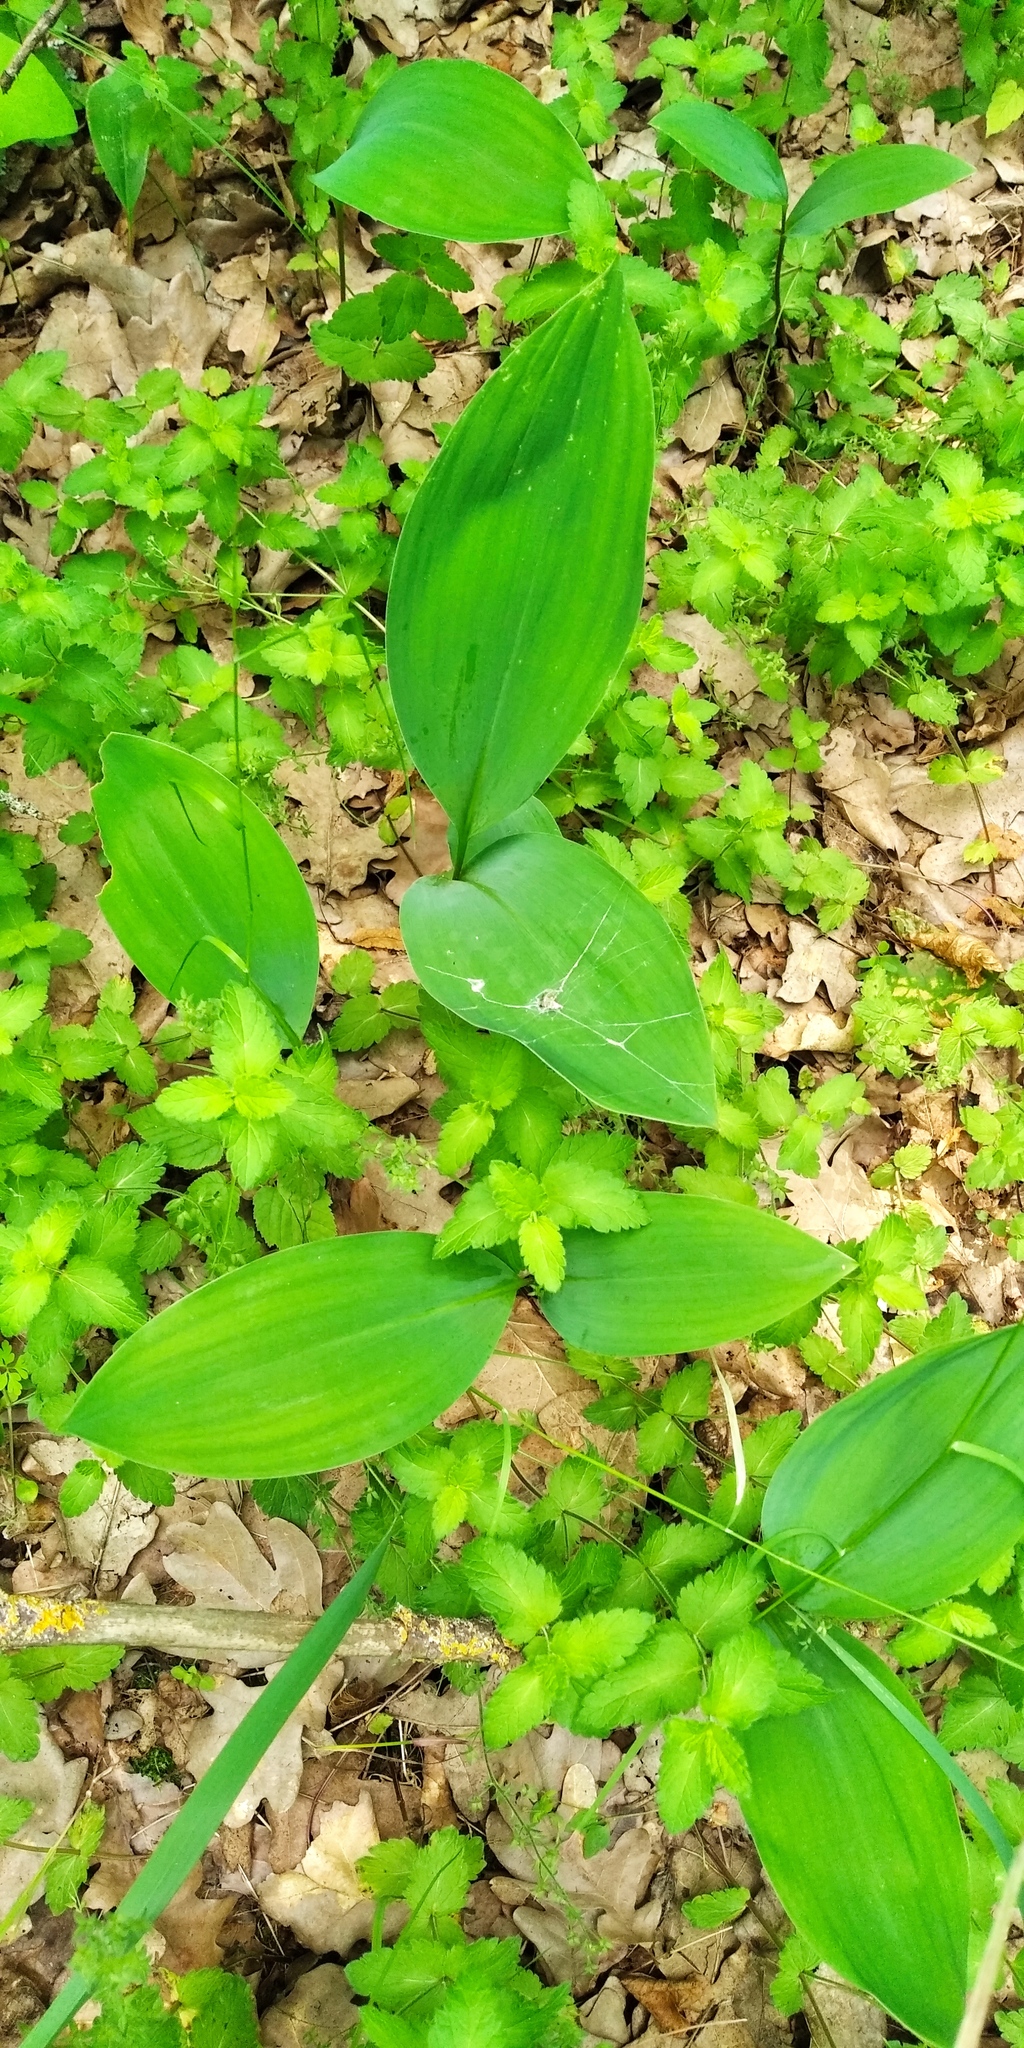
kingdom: Plantae
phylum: Tracheophyta
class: Liliopsida
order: Asparagales
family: Asparagaceae
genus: Convallaria
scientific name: Convallaria majalis
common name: Lily-of-the-valley
